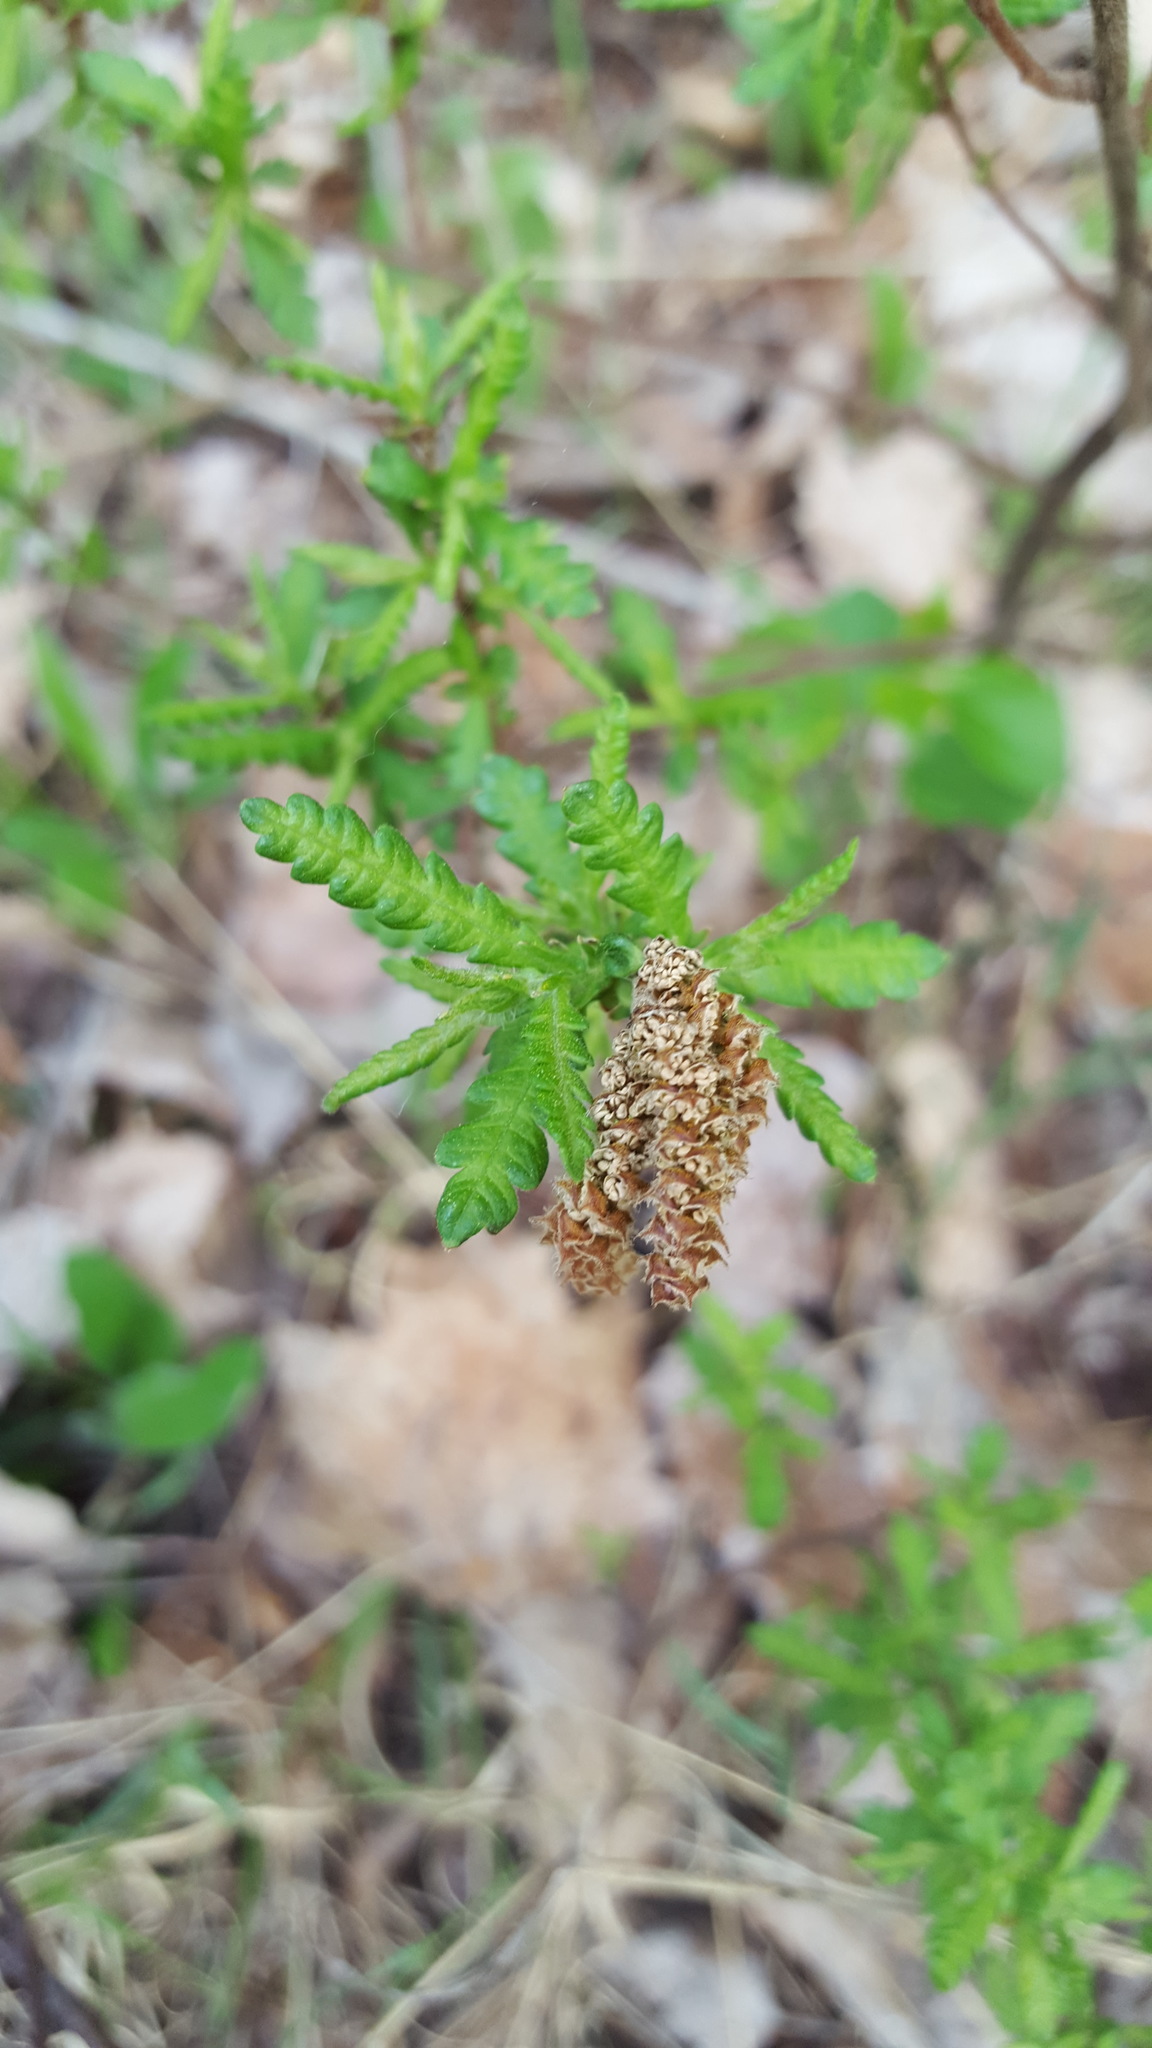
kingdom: Plantae
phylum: Tracheophyta
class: Magnoliopsida
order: Fagales
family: Myricaceae
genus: Comptonia
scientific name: Comptonia peregrina
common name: Sweet-fern
